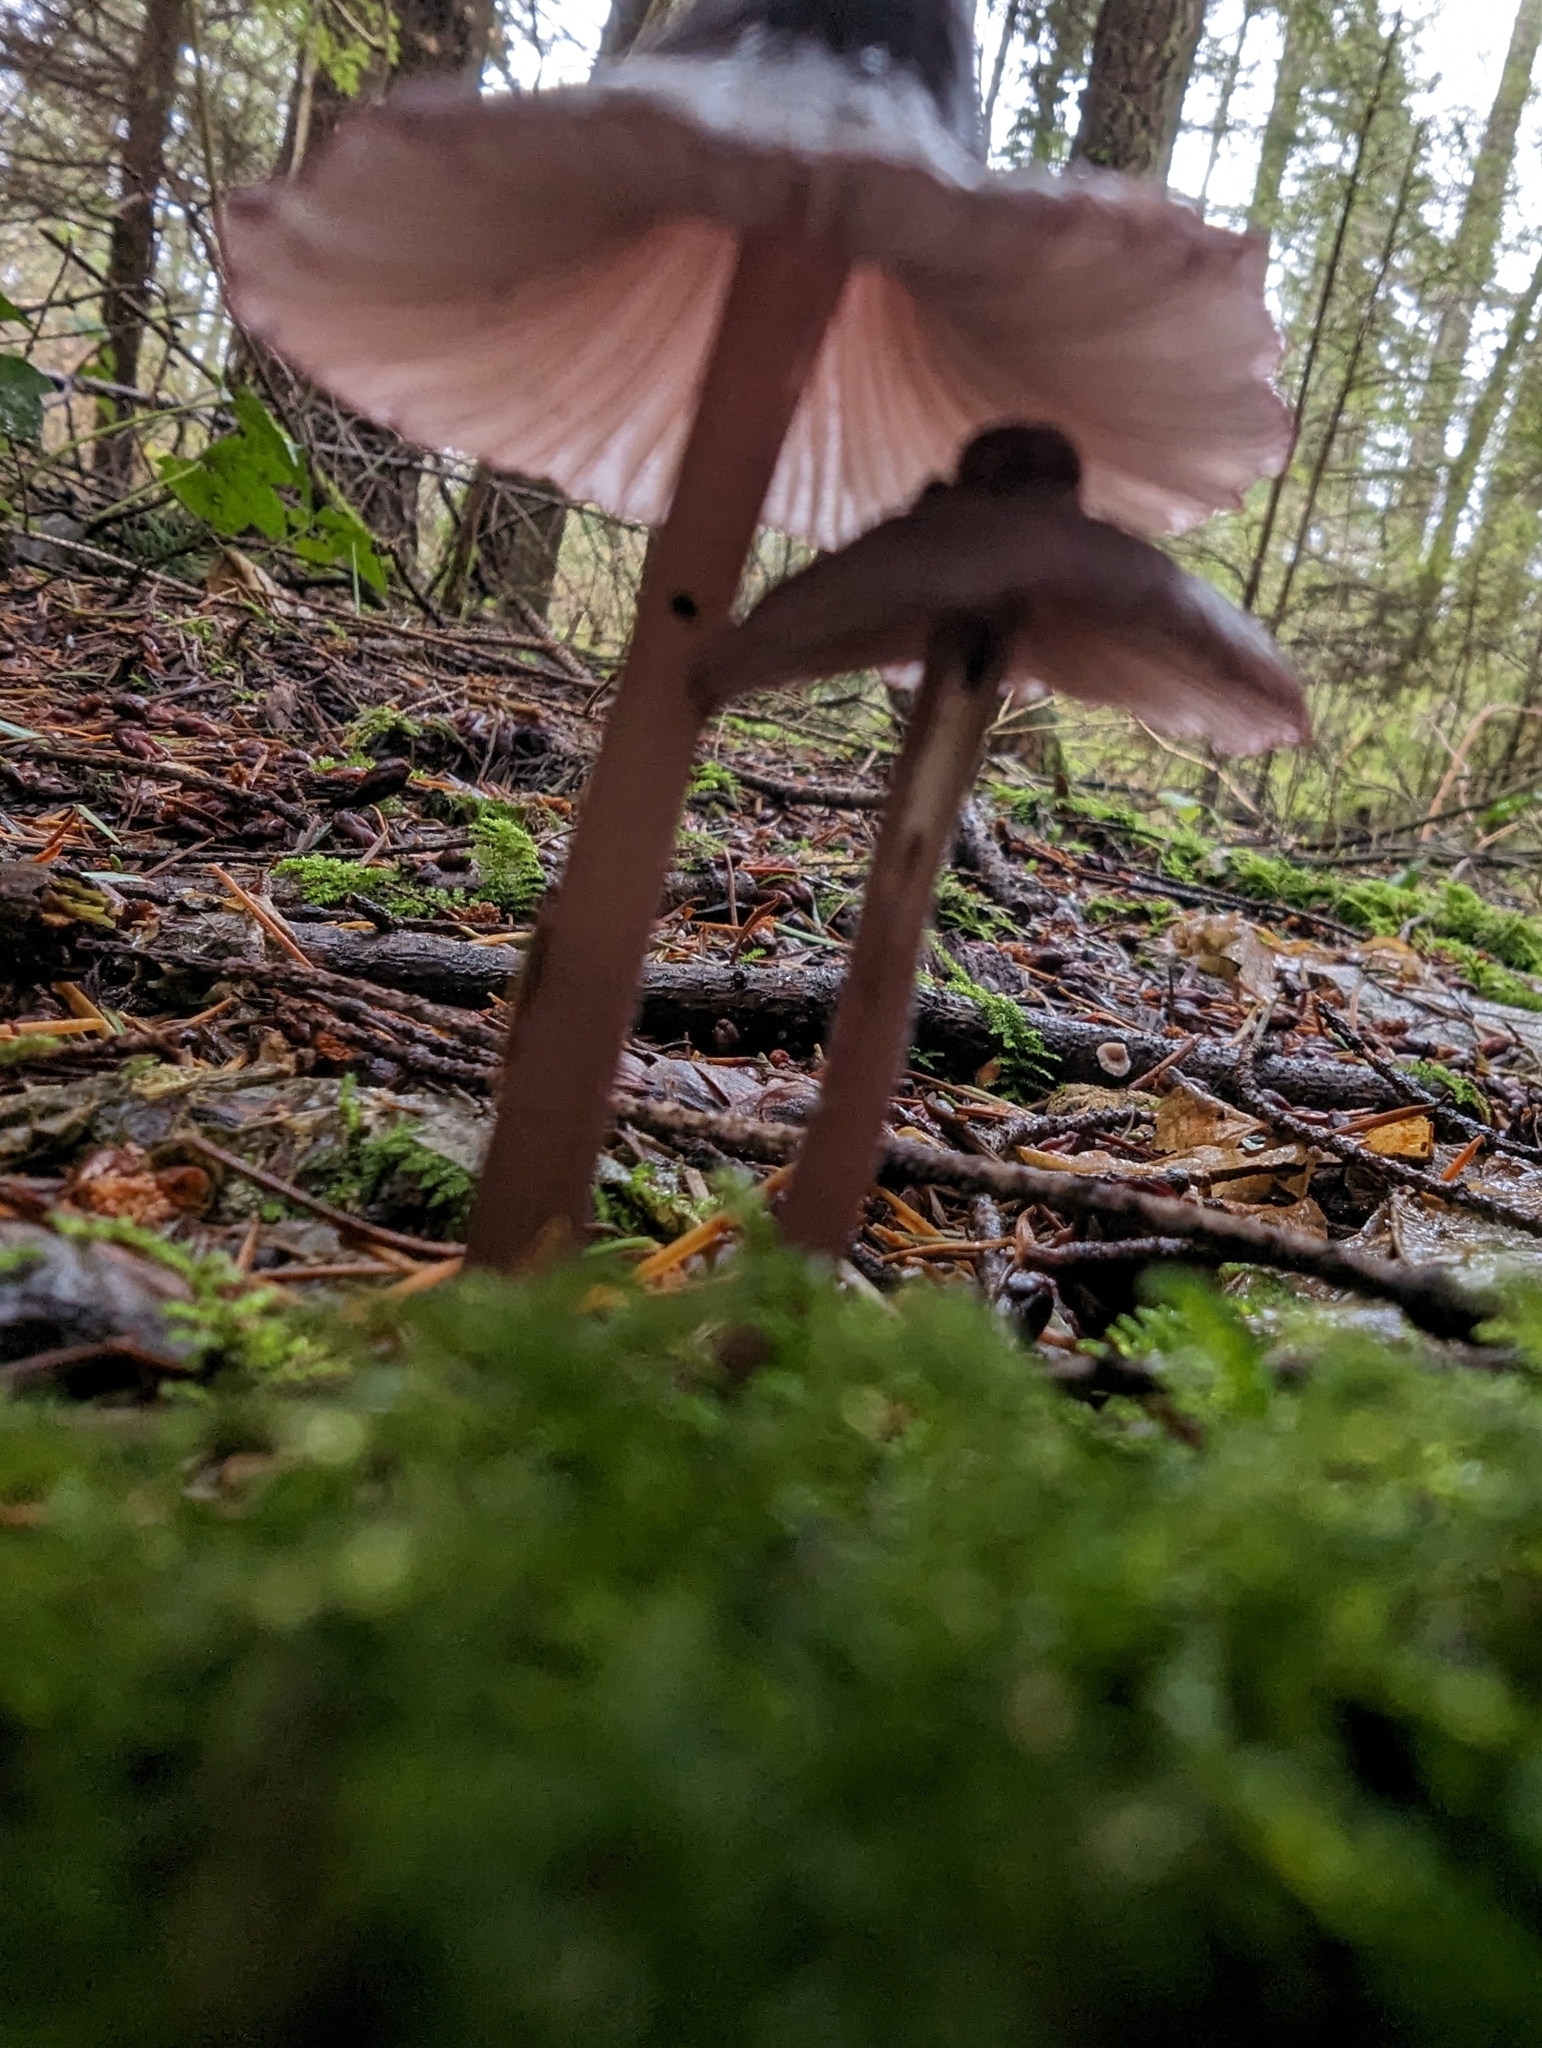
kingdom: Fungi
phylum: Basidiomycota
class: Agaricomycetes
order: Agaricales
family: Mycenaceae
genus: Mycena
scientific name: Mycena purpureofusca
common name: Purple edge bonnet
